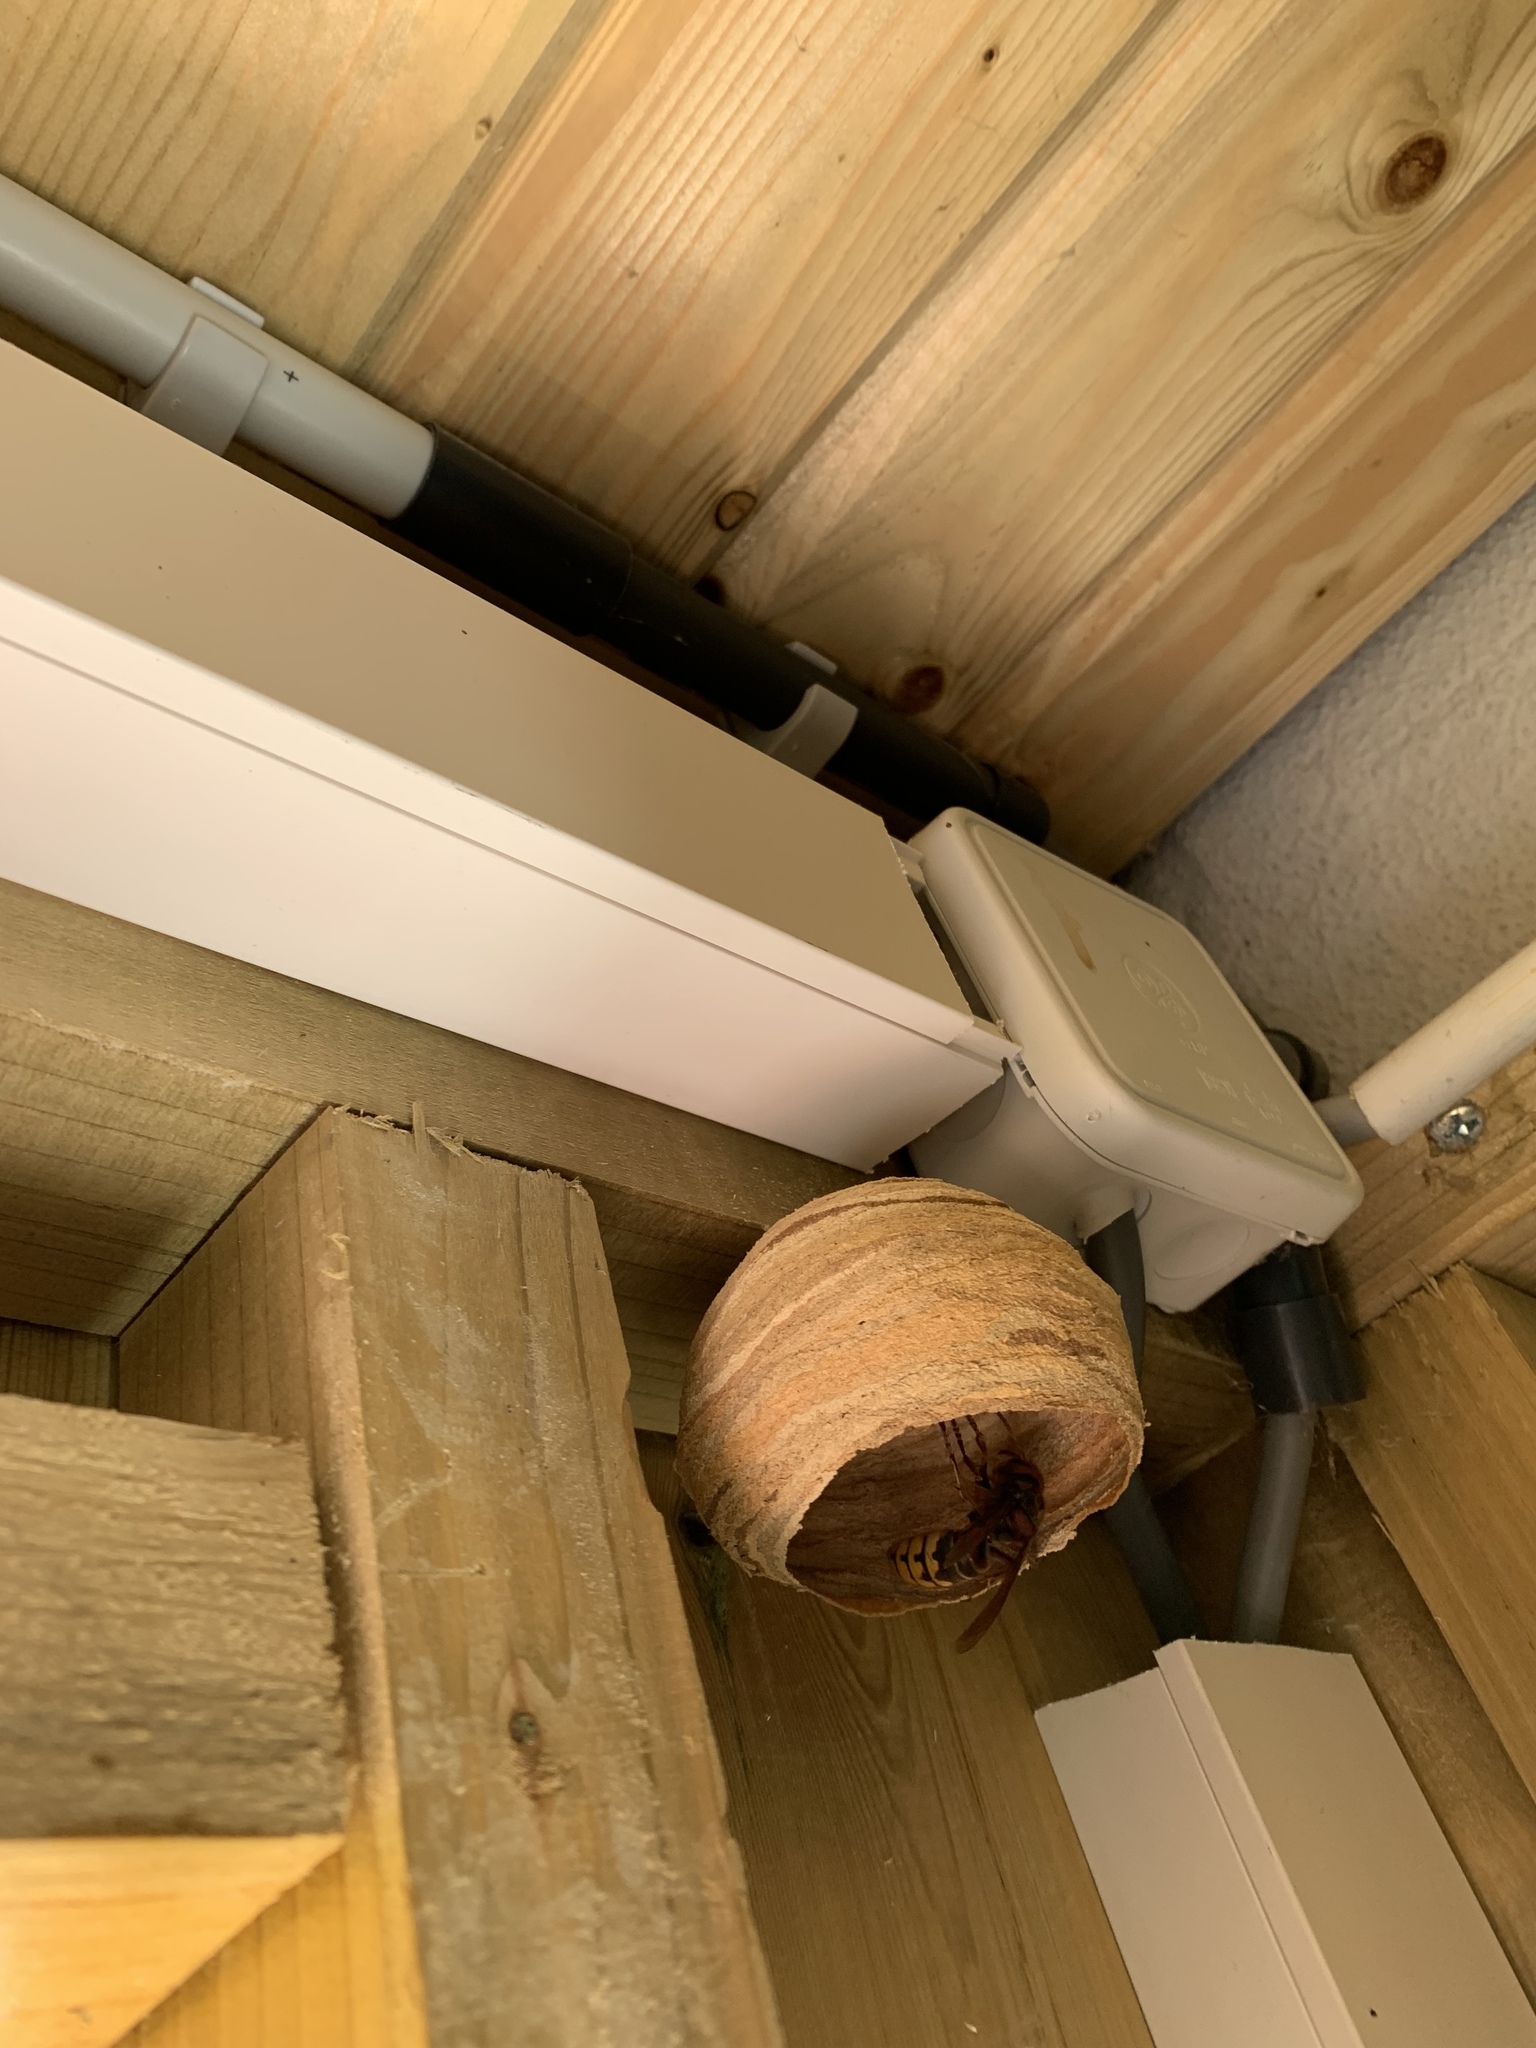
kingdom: Animalia
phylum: Arthropoda
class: Insecta
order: Hymenoptera
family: Vespidae
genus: Vespa
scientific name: Vespa crabro
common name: Hornet
